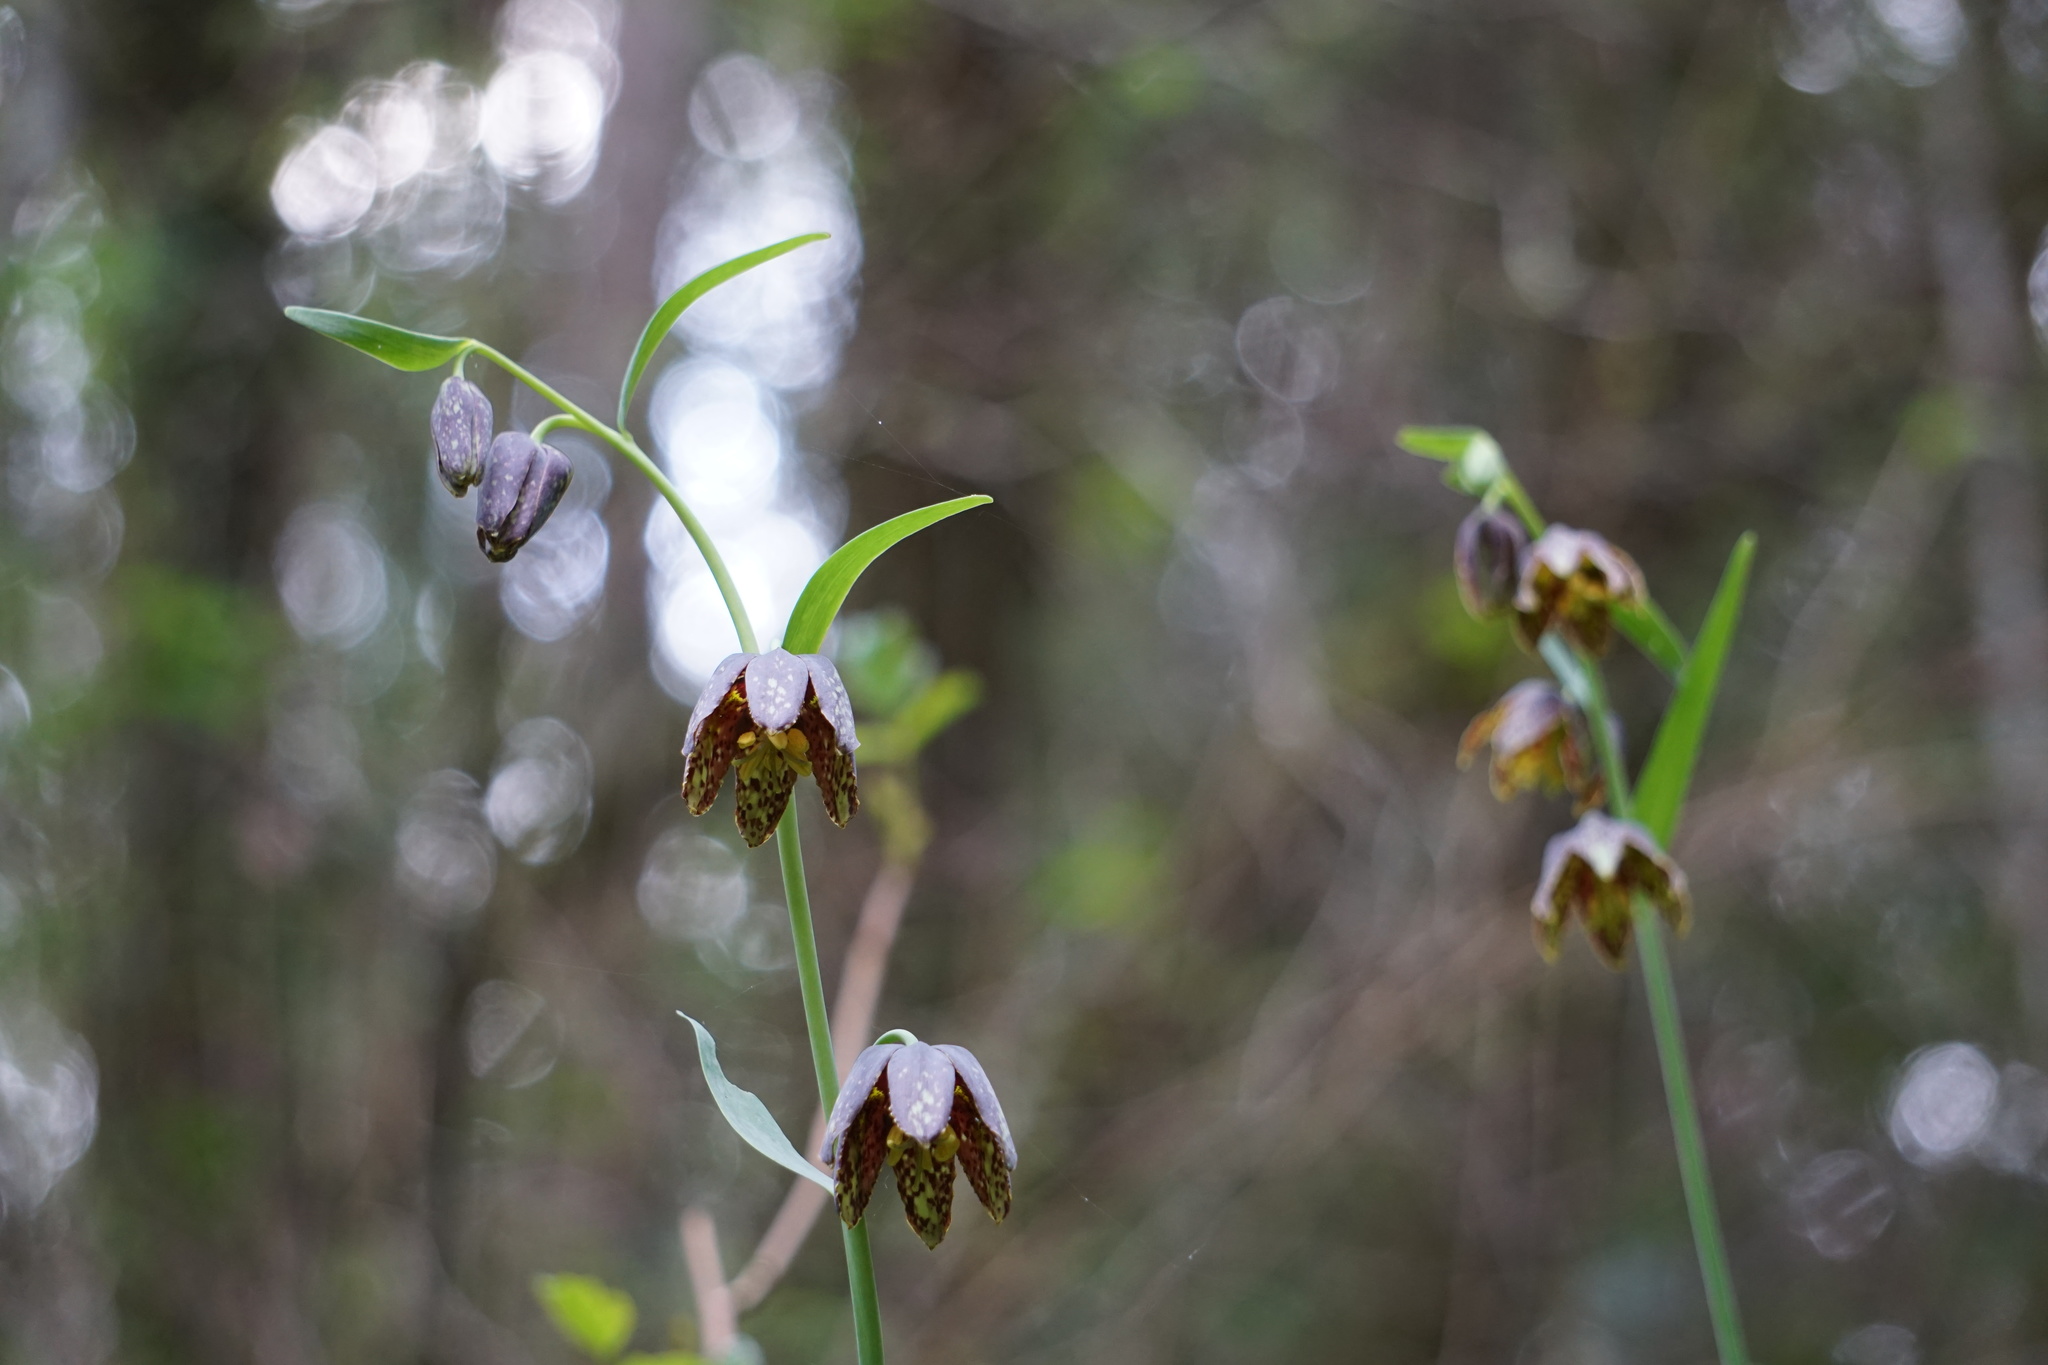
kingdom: Plantae
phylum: Tracheophyta
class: Liliopsida
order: Liliales
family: Liliaceae
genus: Fritillaria
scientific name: Fritillaria affinis
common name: Ojai fritillary
